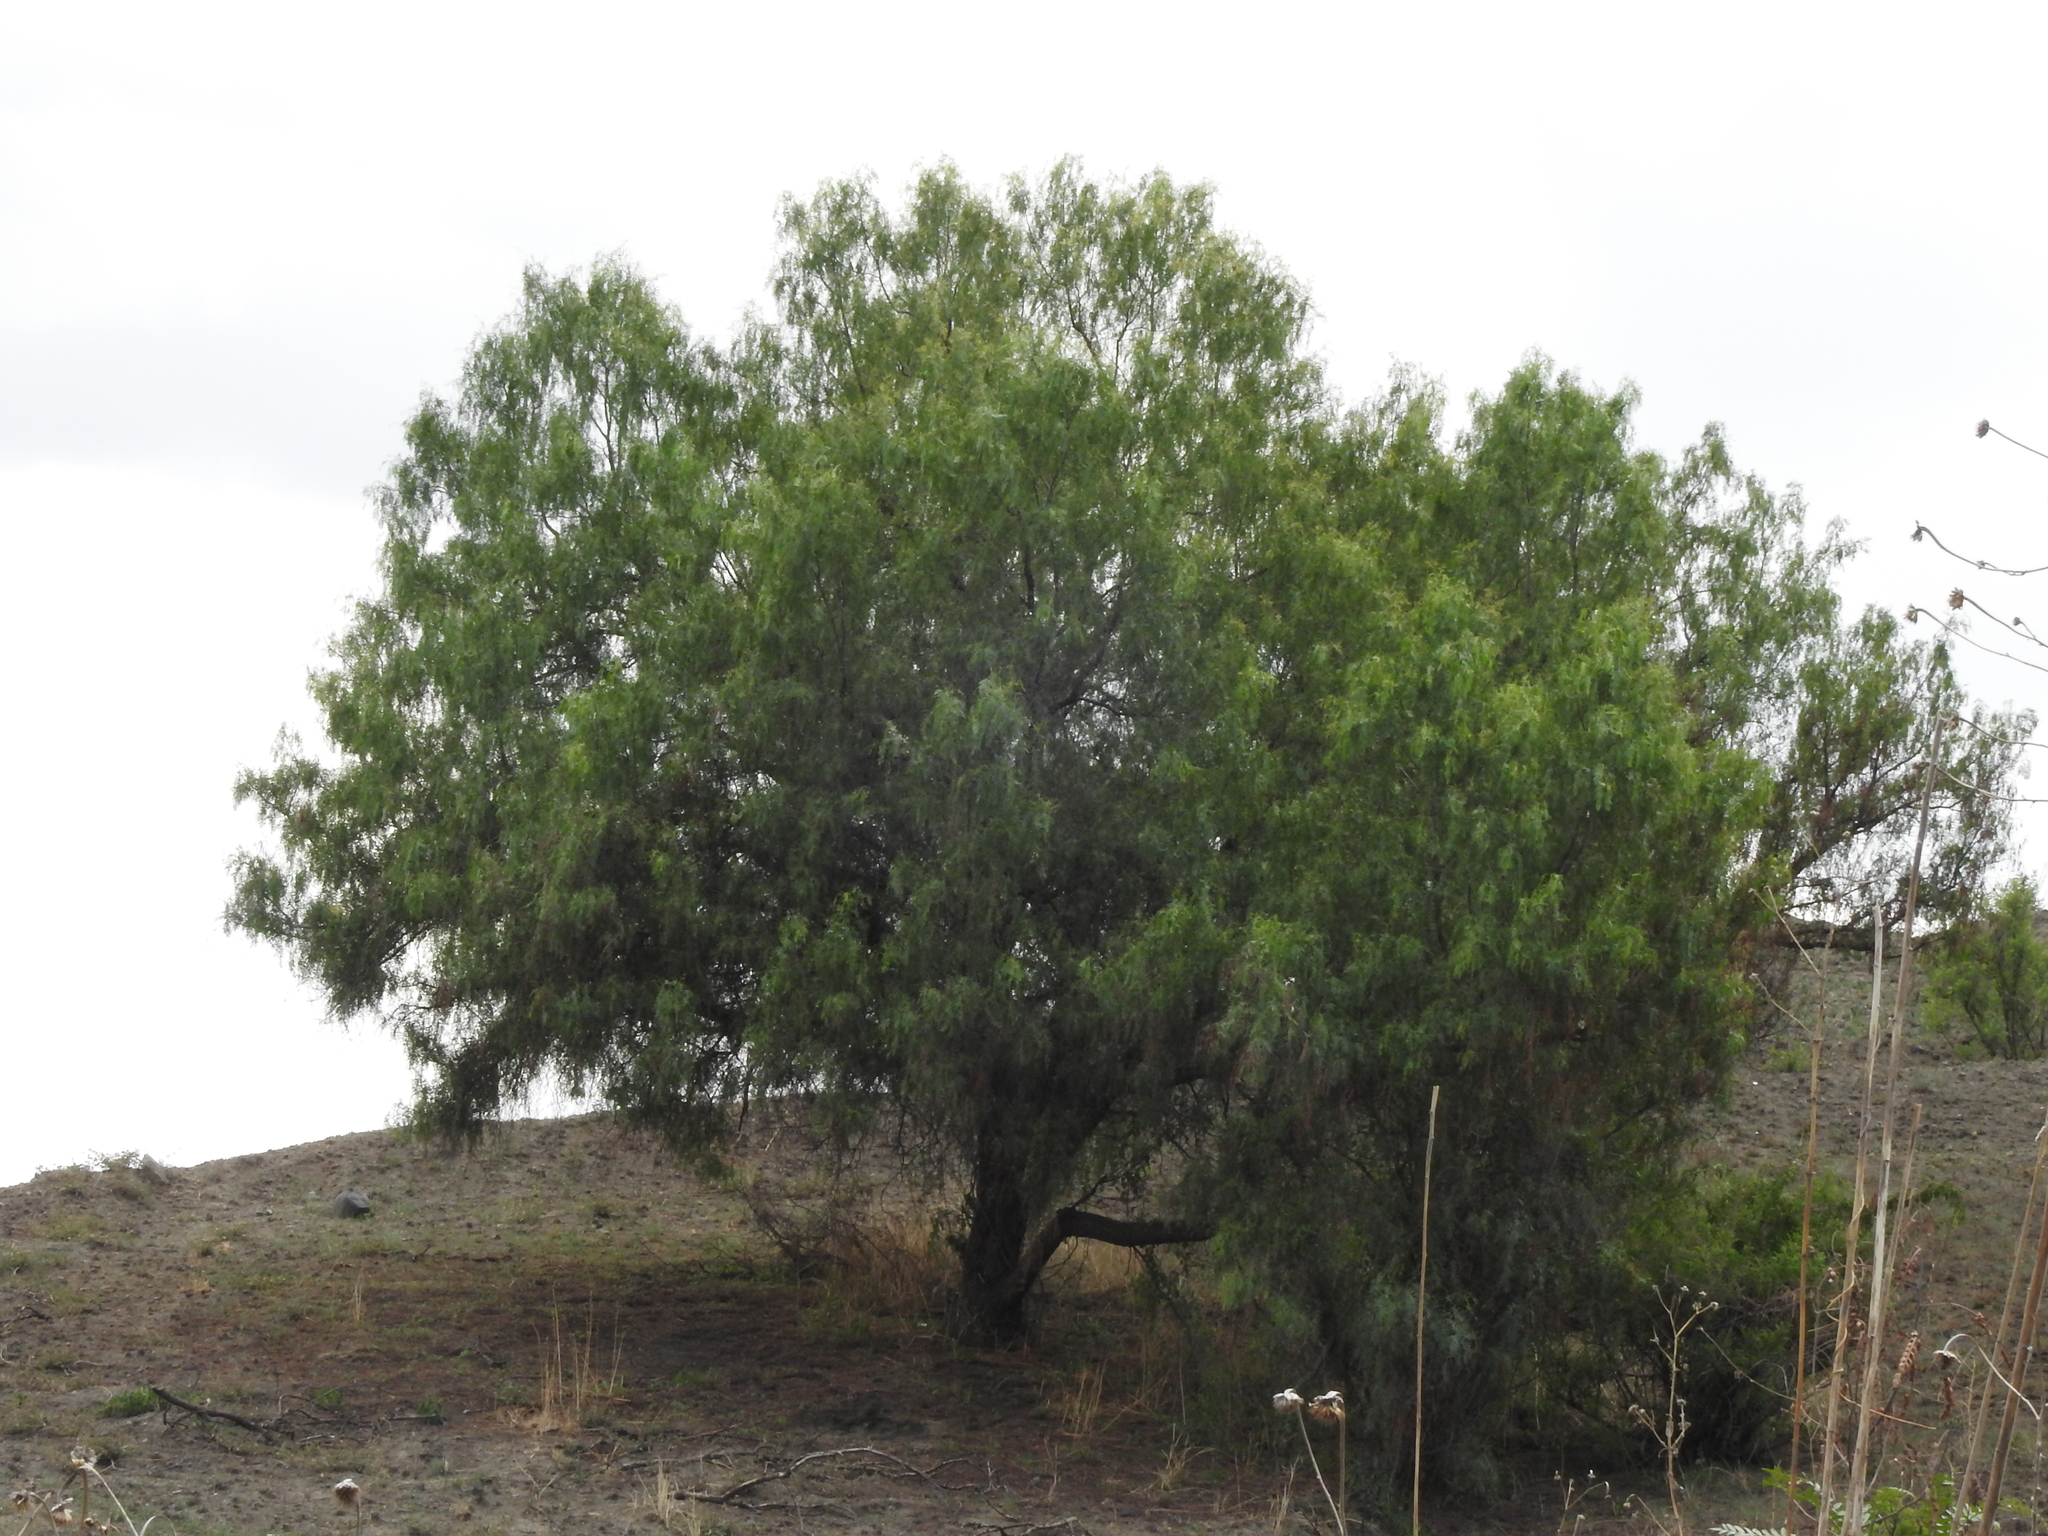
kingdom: Plantae
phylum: Tracheophyta
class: Magnoliopsida
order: Sapindales
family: Anacardiaceae
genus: Schinus
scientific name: Schinus molle
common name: Peruvian peppertree
